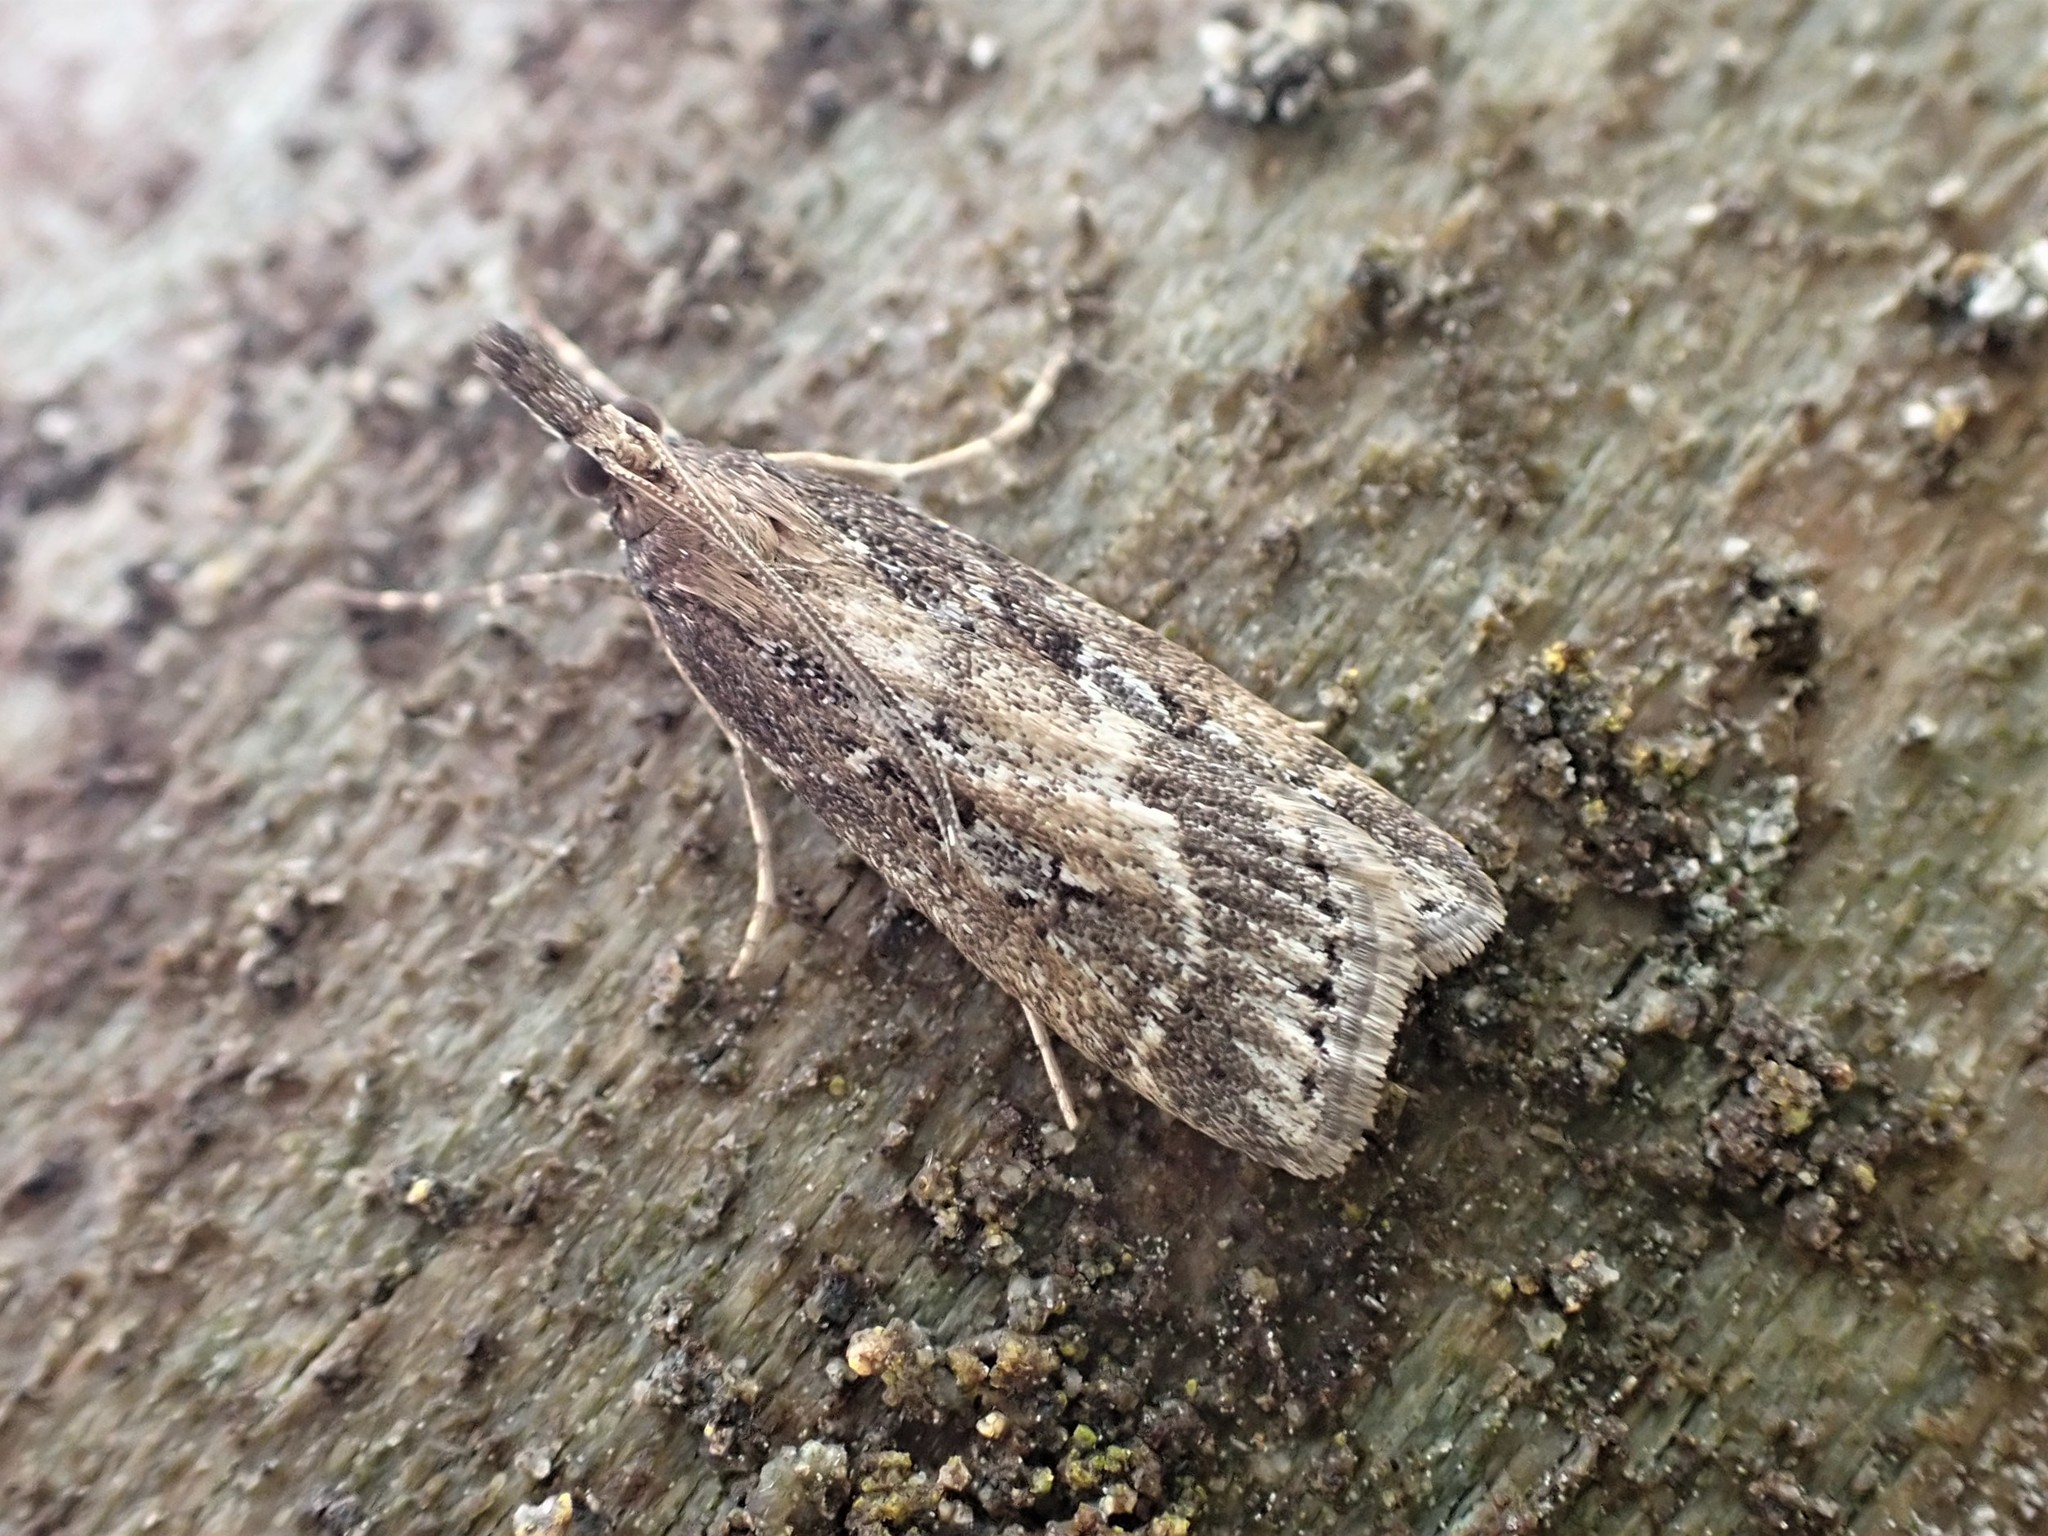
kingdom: Animalia
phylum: Arthropoda
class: Insecta
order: Lepidoptera
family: Crambidae
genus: Eudonia
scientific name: Eudonia octophora
